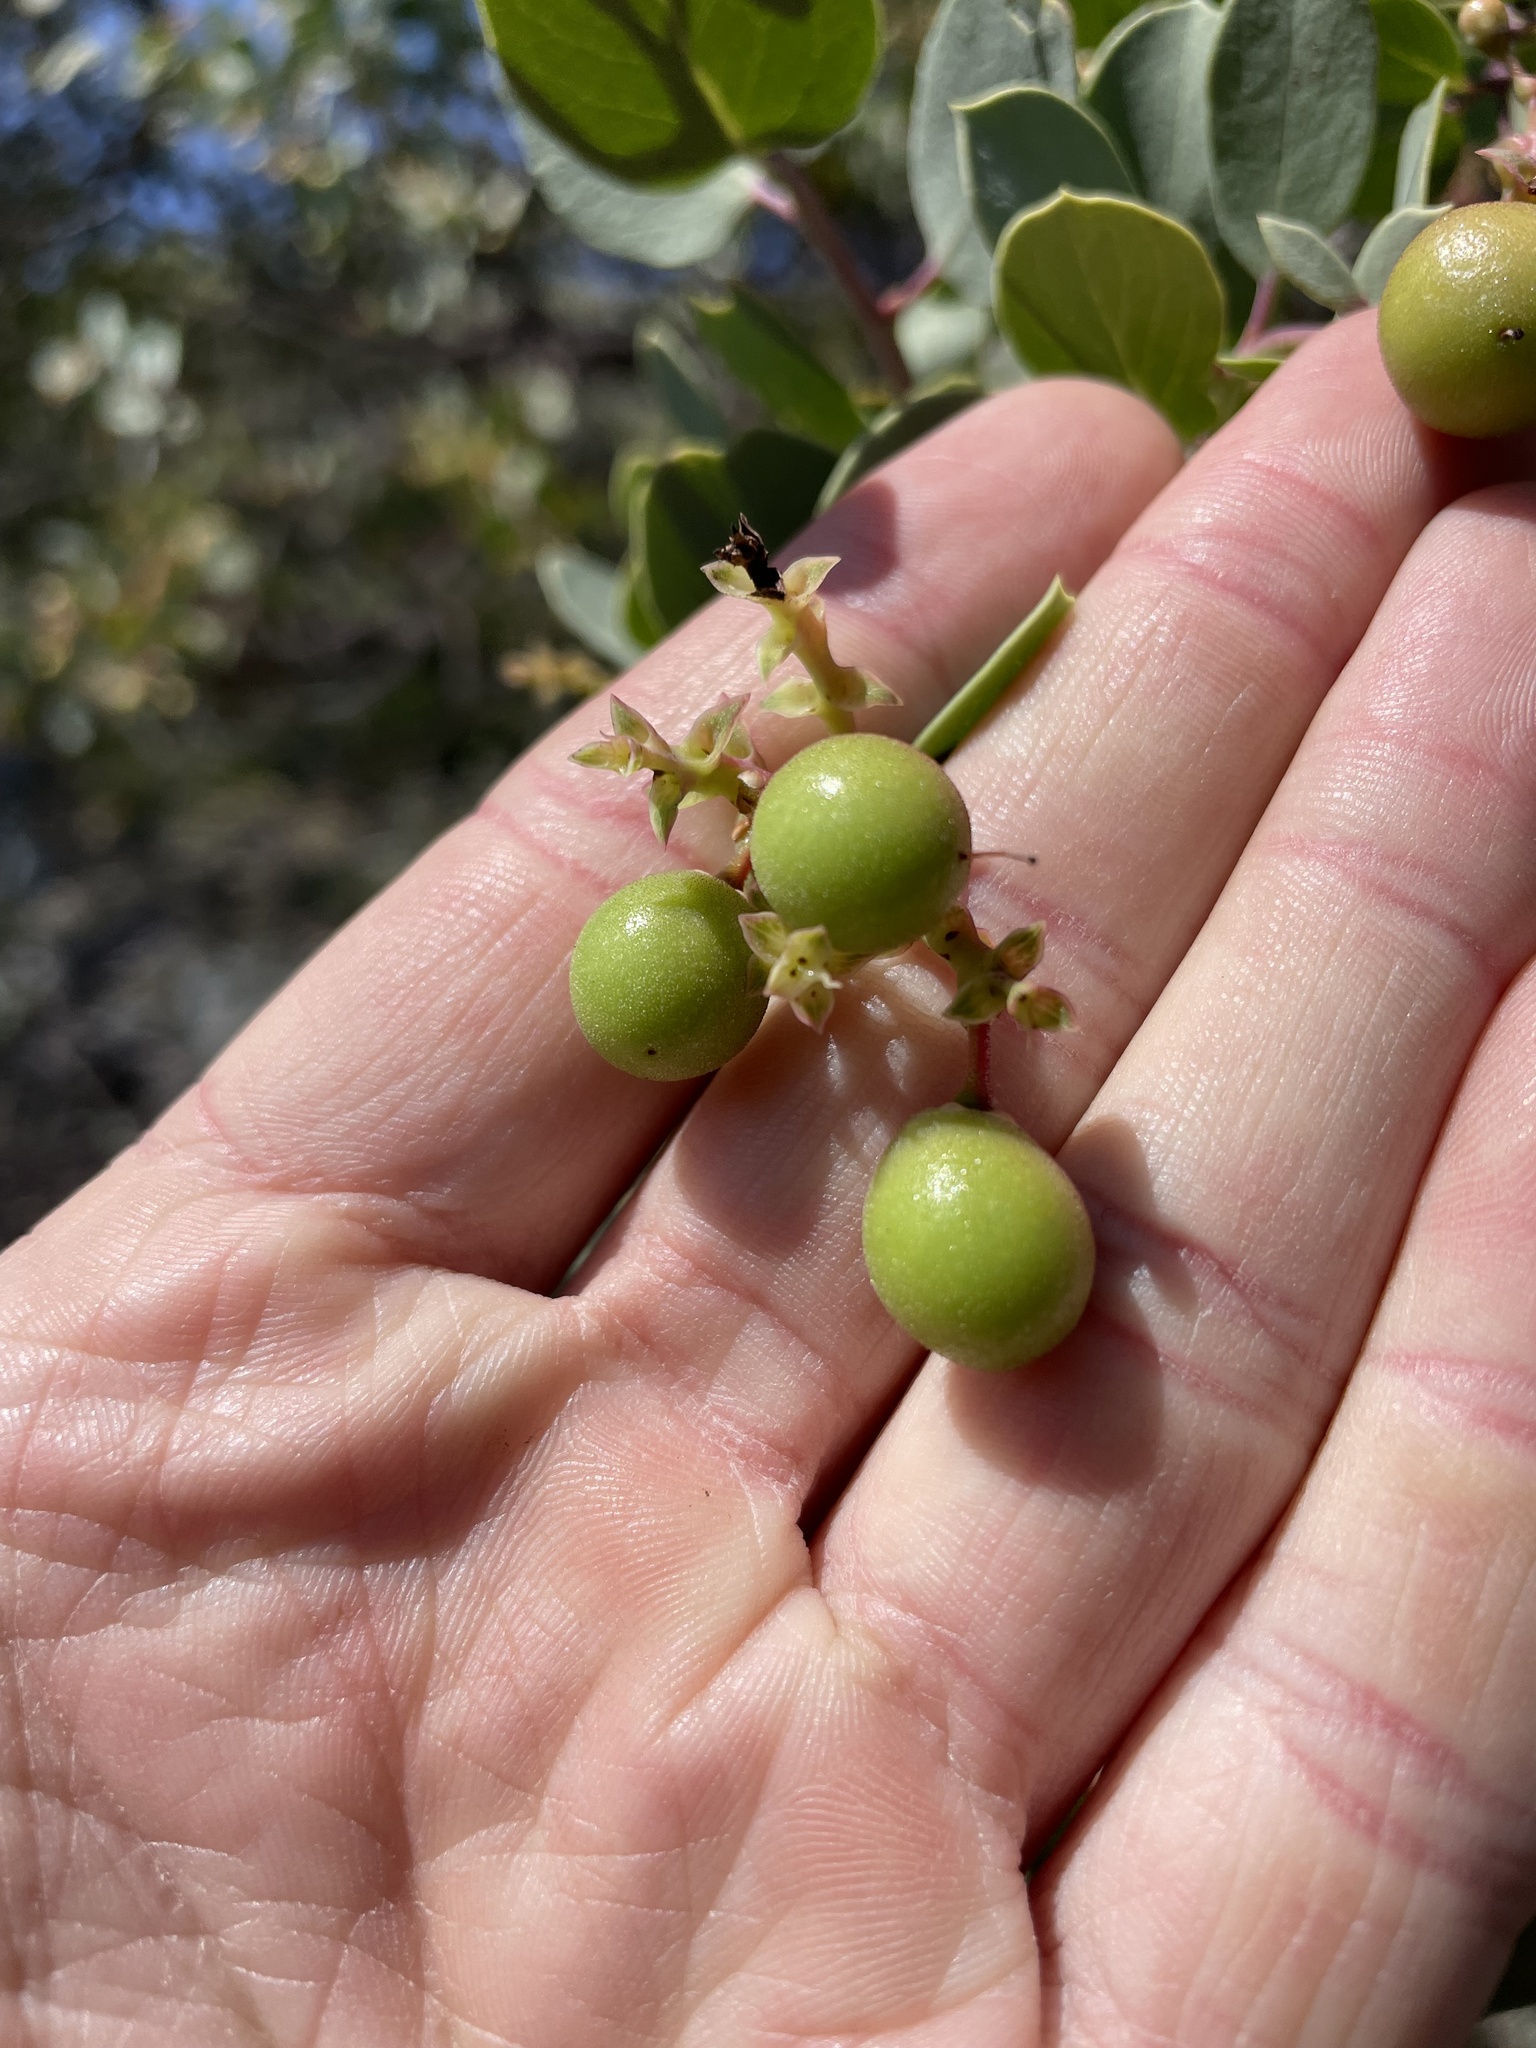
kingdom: Plantae
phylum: Tracheophyta
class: Magnoliopsida
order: Ericales
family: Ericaceae
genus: Arctostaphylos
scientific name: Arctostaphylos glauca
